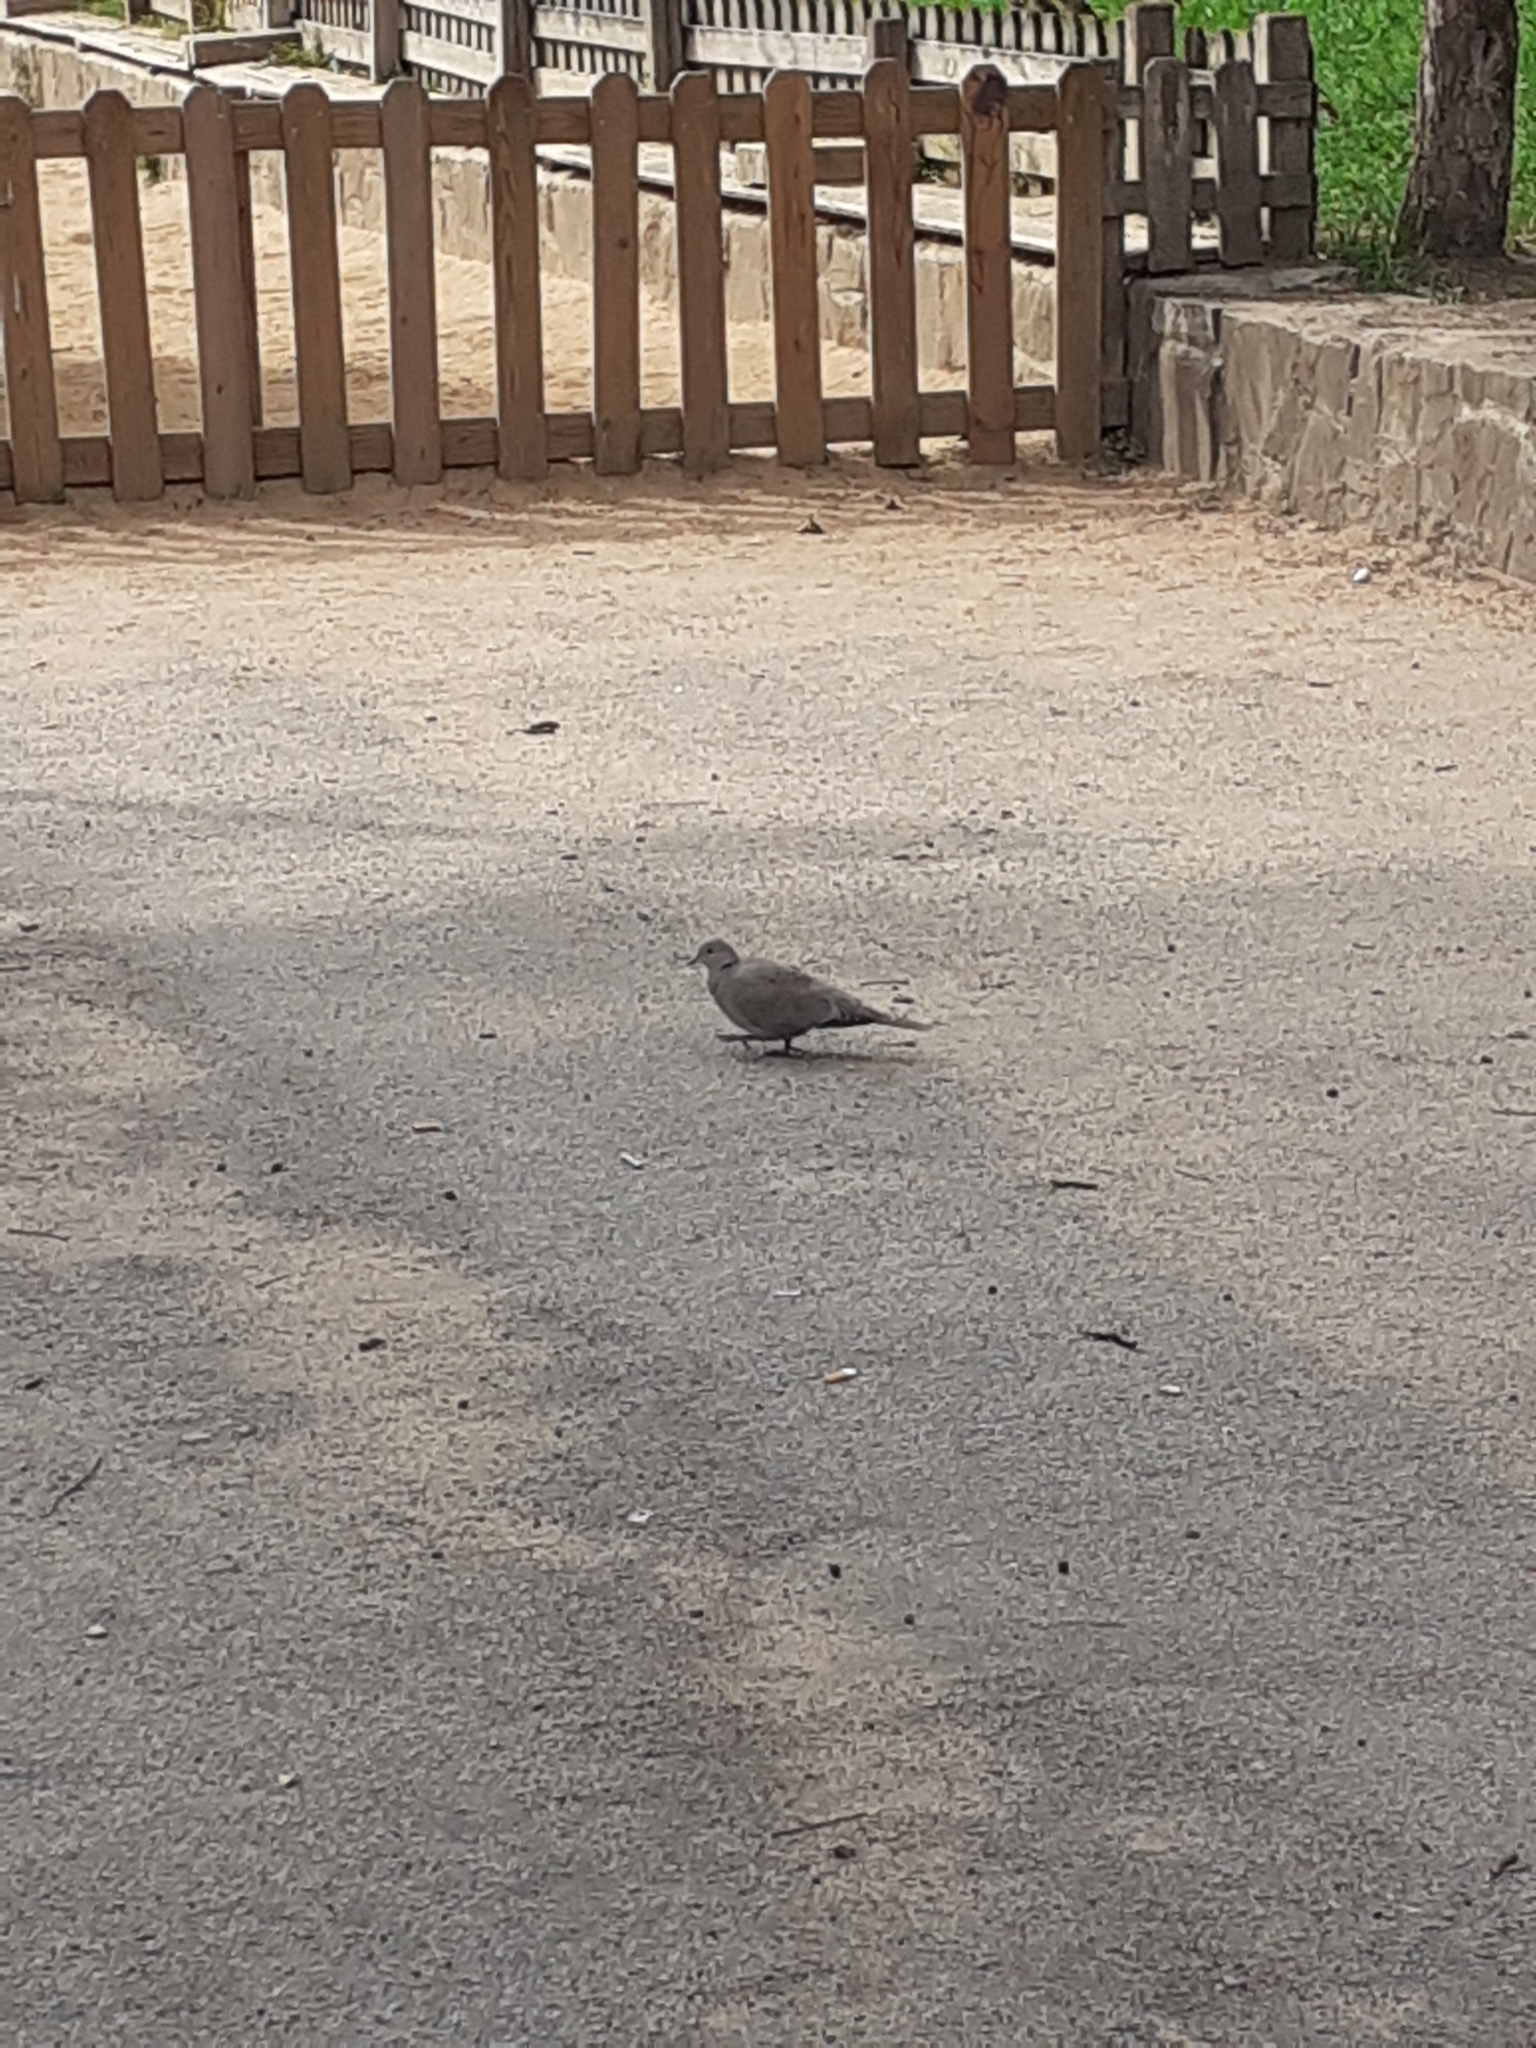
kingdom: Animalia
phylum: Chordata
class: Aves
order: Columbiformes
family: Columbidae
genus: Streptopelia
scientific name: Streptopelia decaocto
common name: Eurasian collared dove
